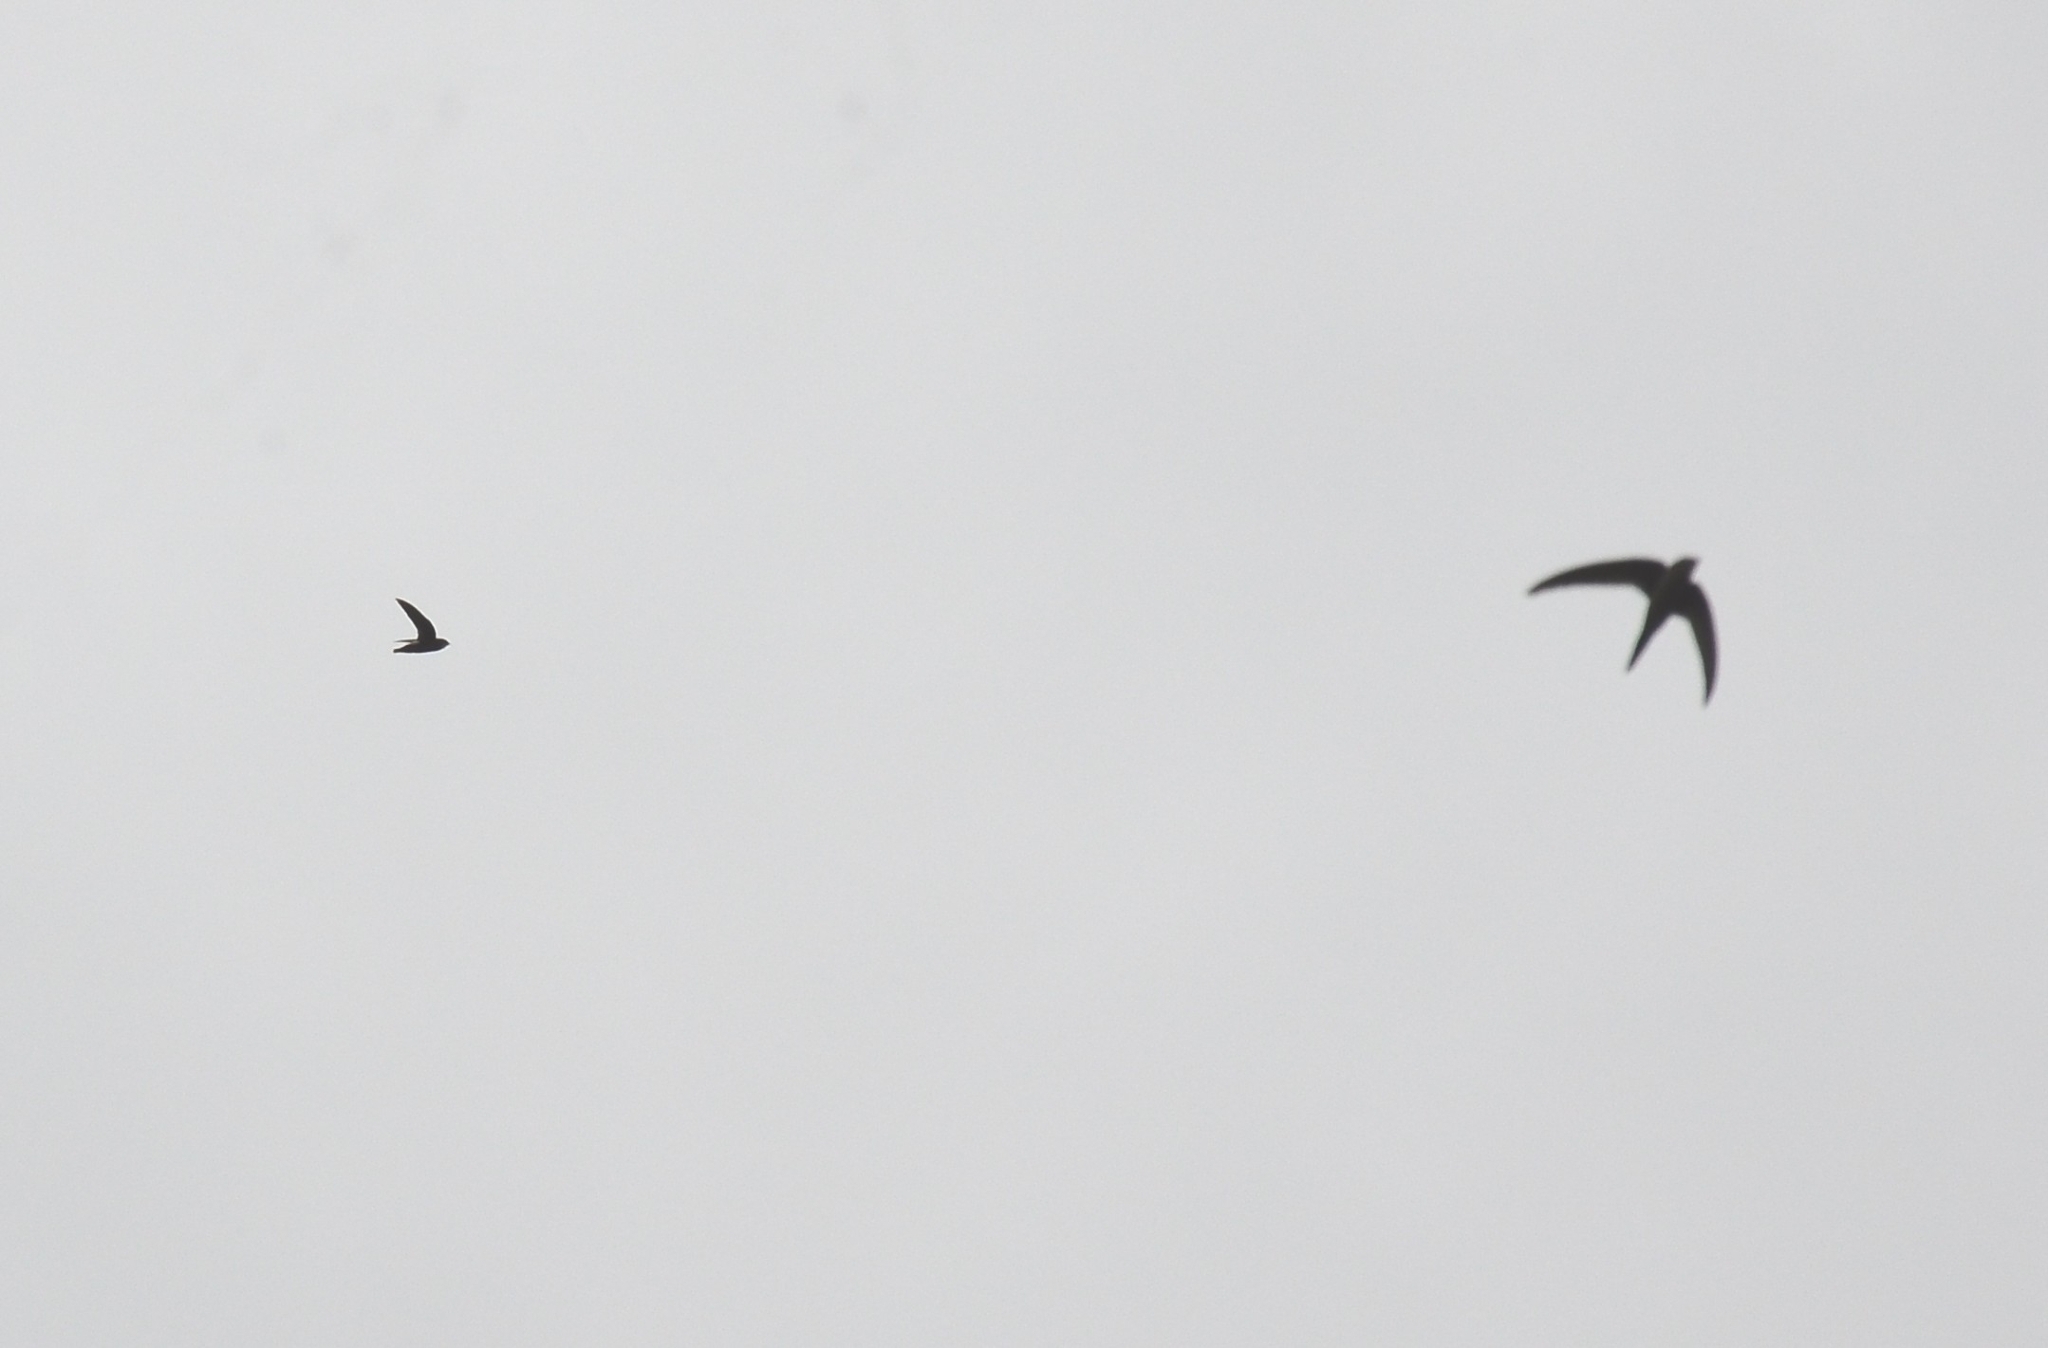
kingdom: Animalia
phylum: Chordata
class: Aves
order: Apodiformes
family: Apodidae
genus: Apus
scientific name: Apus affinis
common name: Little swift
